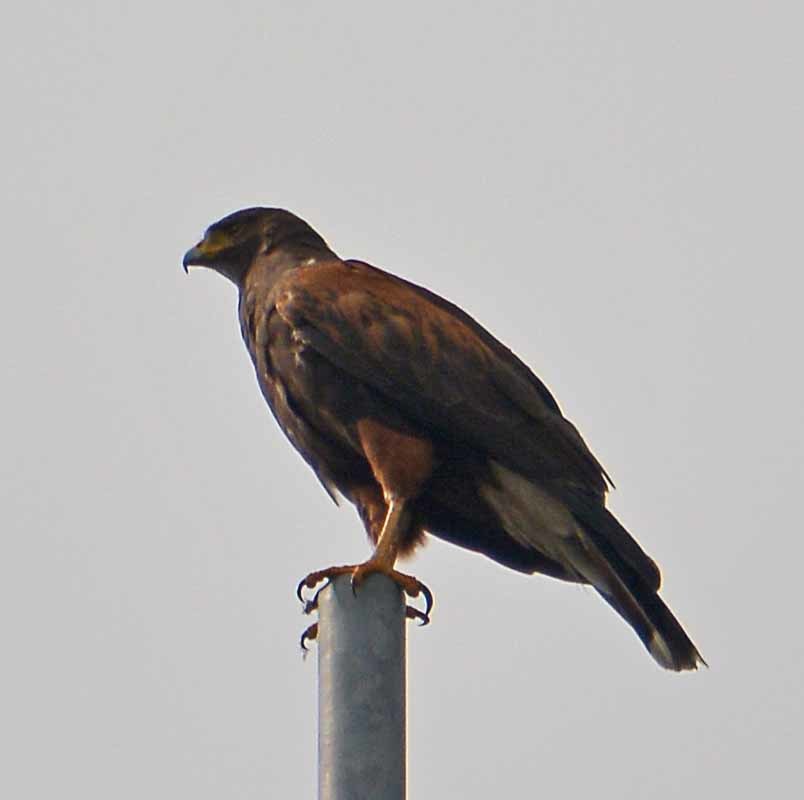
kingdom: Animalia
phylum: Chordata
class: Aves
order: Accipitriformes
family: Accipitridae
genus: Parabuteo
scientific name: Parabuteo unicinctus
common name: Harris's hawk
